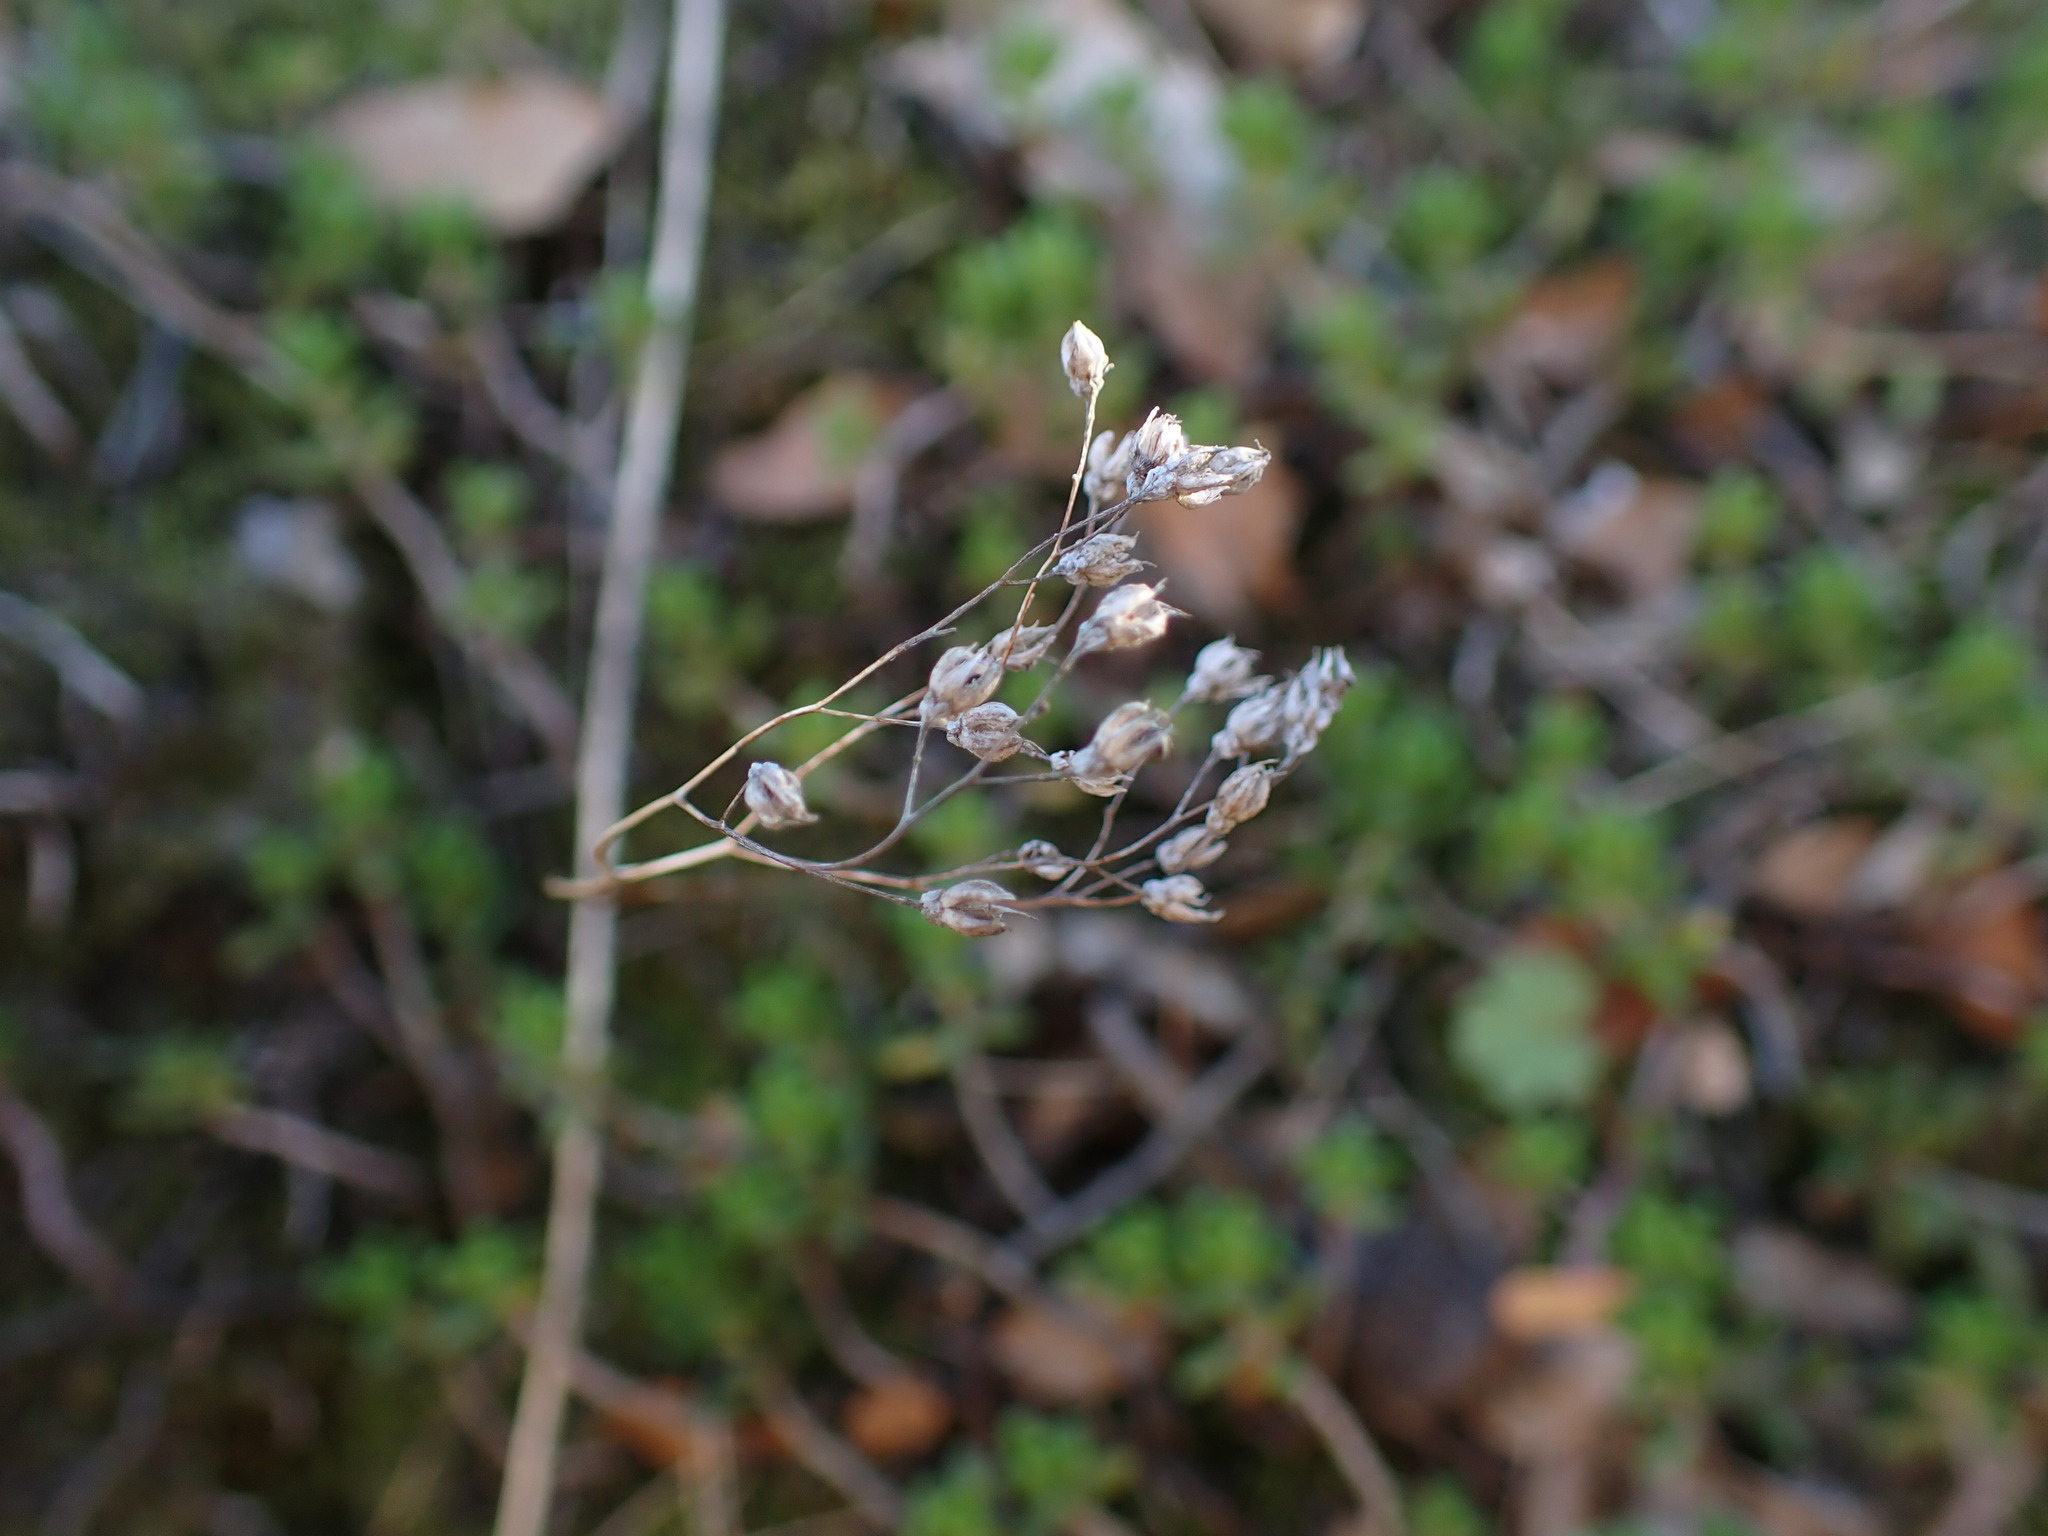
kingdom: Plantae
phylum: Tracheophyta
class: Magnoliopsida
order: Saxifragales
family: Crassulaceae
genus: Sedum
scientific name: Sedum album
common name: White stonecrop
